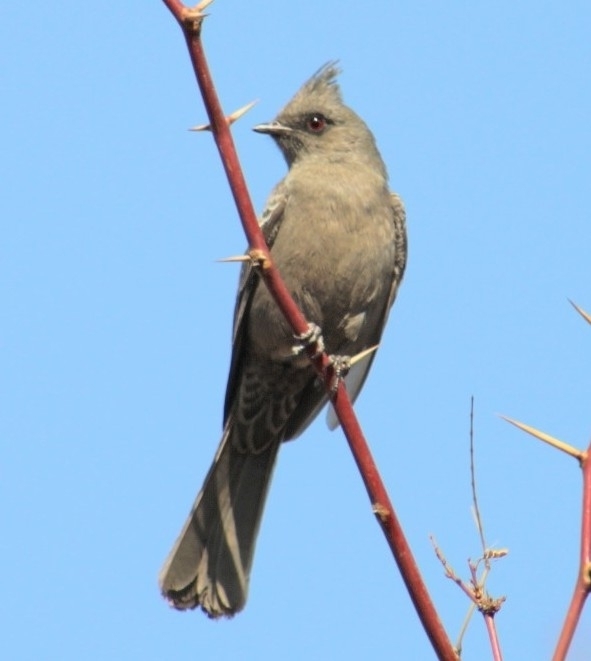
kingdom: Animalia
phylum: Chordata
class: Aves
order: Passeriformes
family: Ptilogonatidae
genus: Phainopepla
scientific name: Phainopepla nitens
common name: Phainopepla
